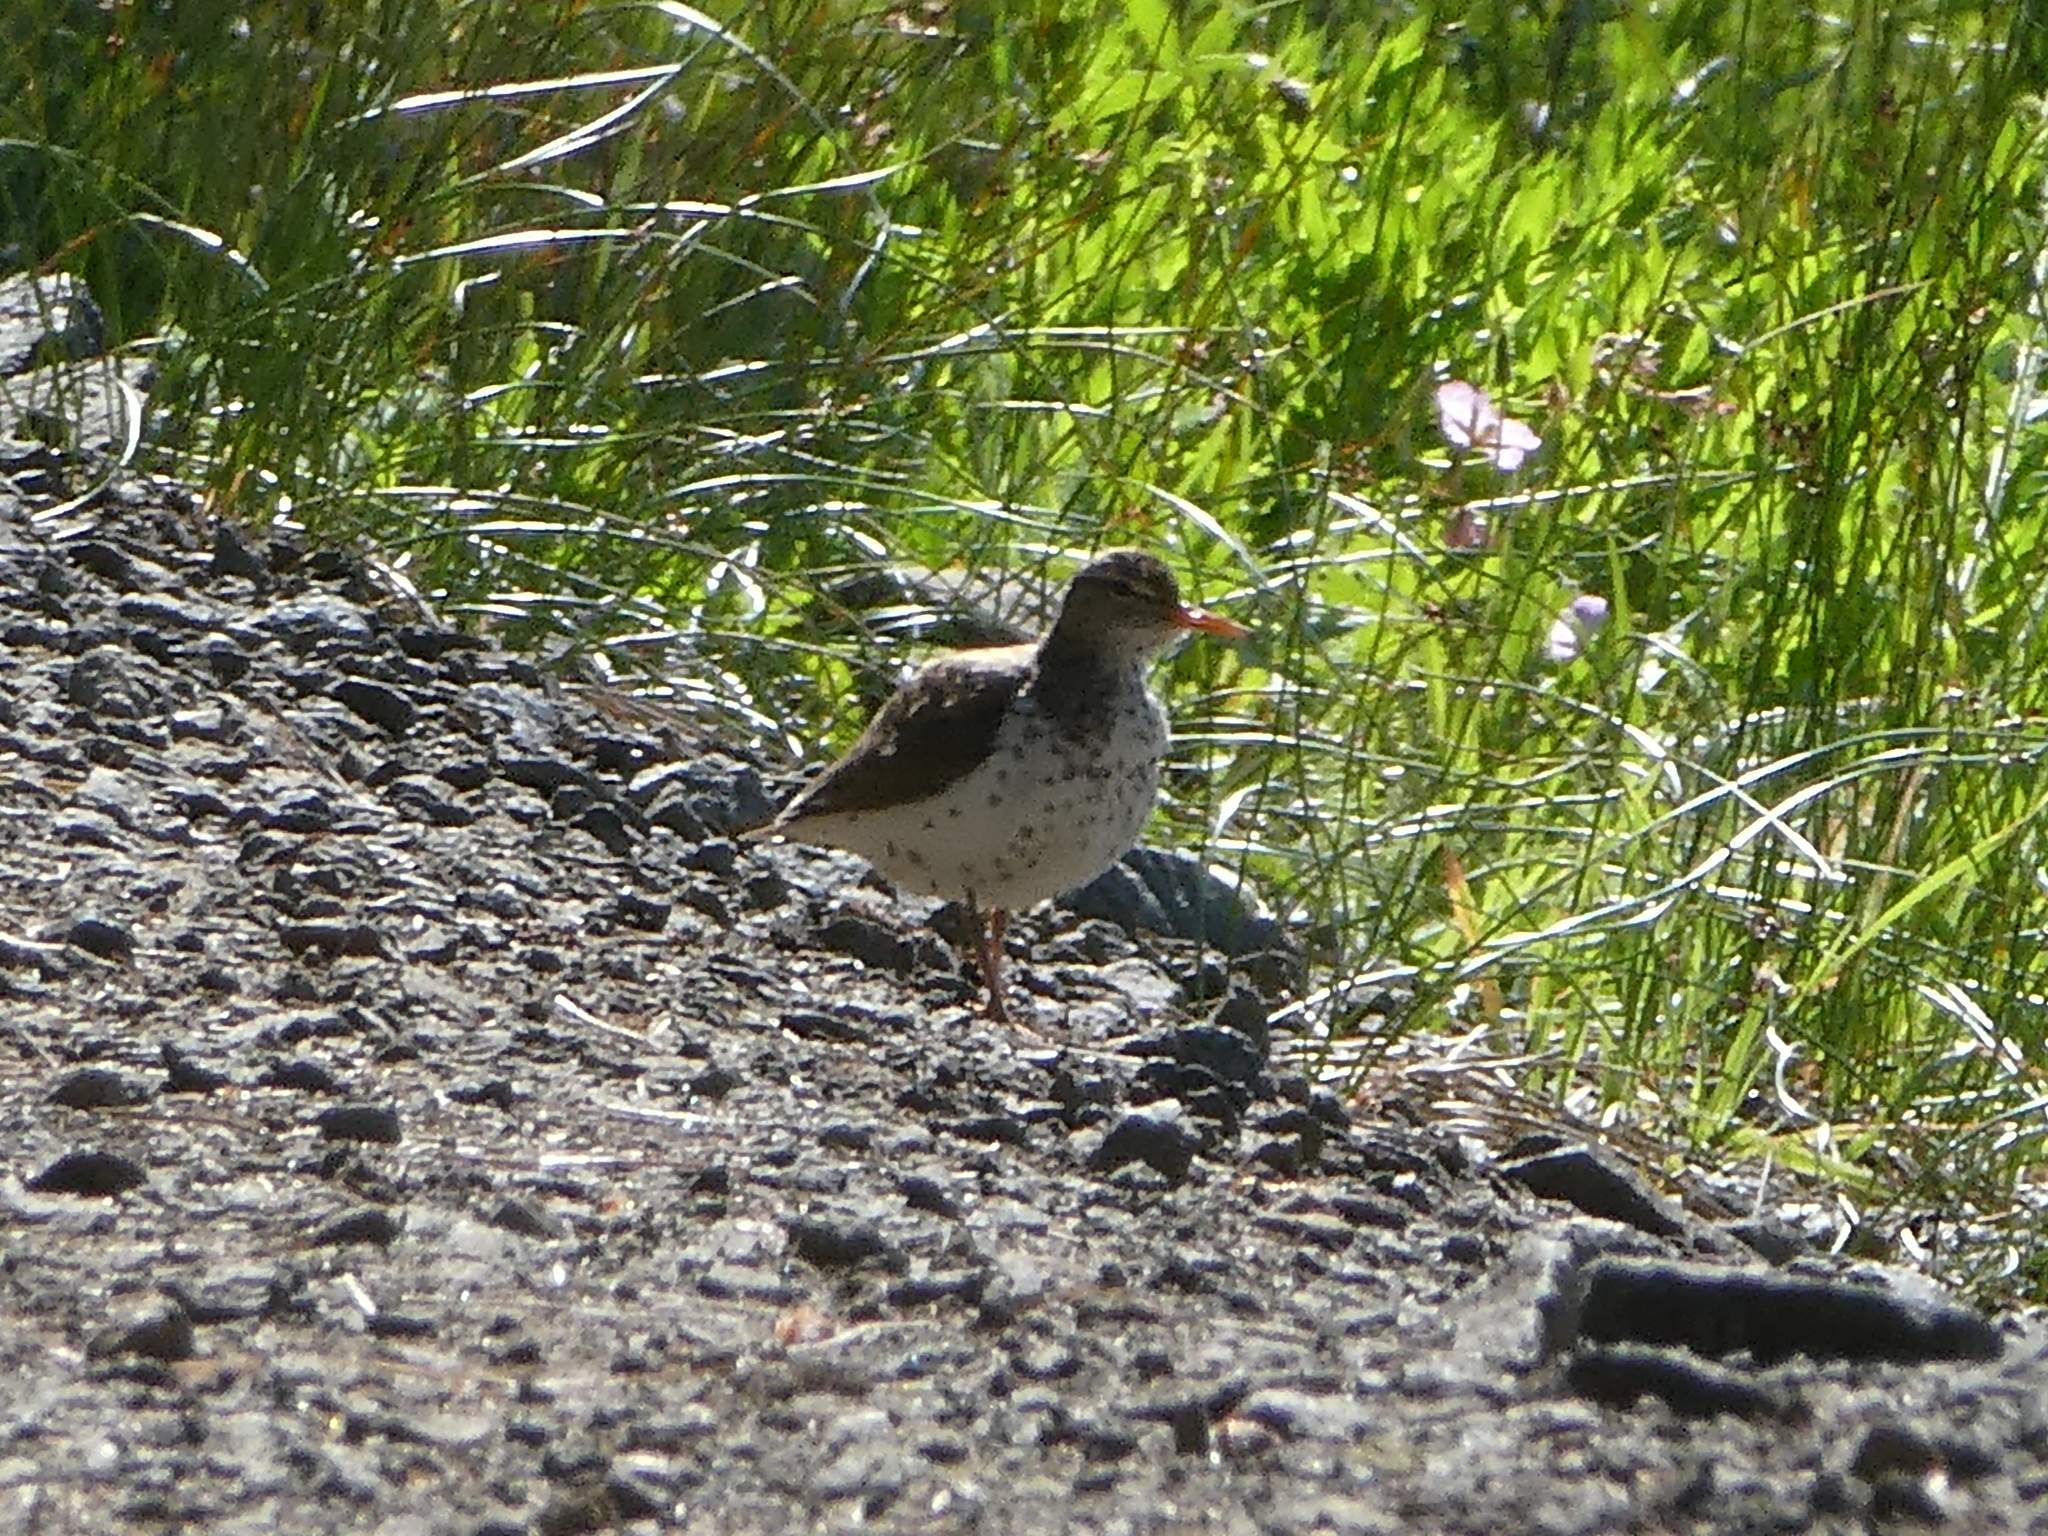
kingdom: Animalia
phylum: Chordata
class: Aves
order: Charadriiformes
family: Scolopacidae
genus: Actitis
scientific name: Actitis macularius
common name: Spotted sandpiper
